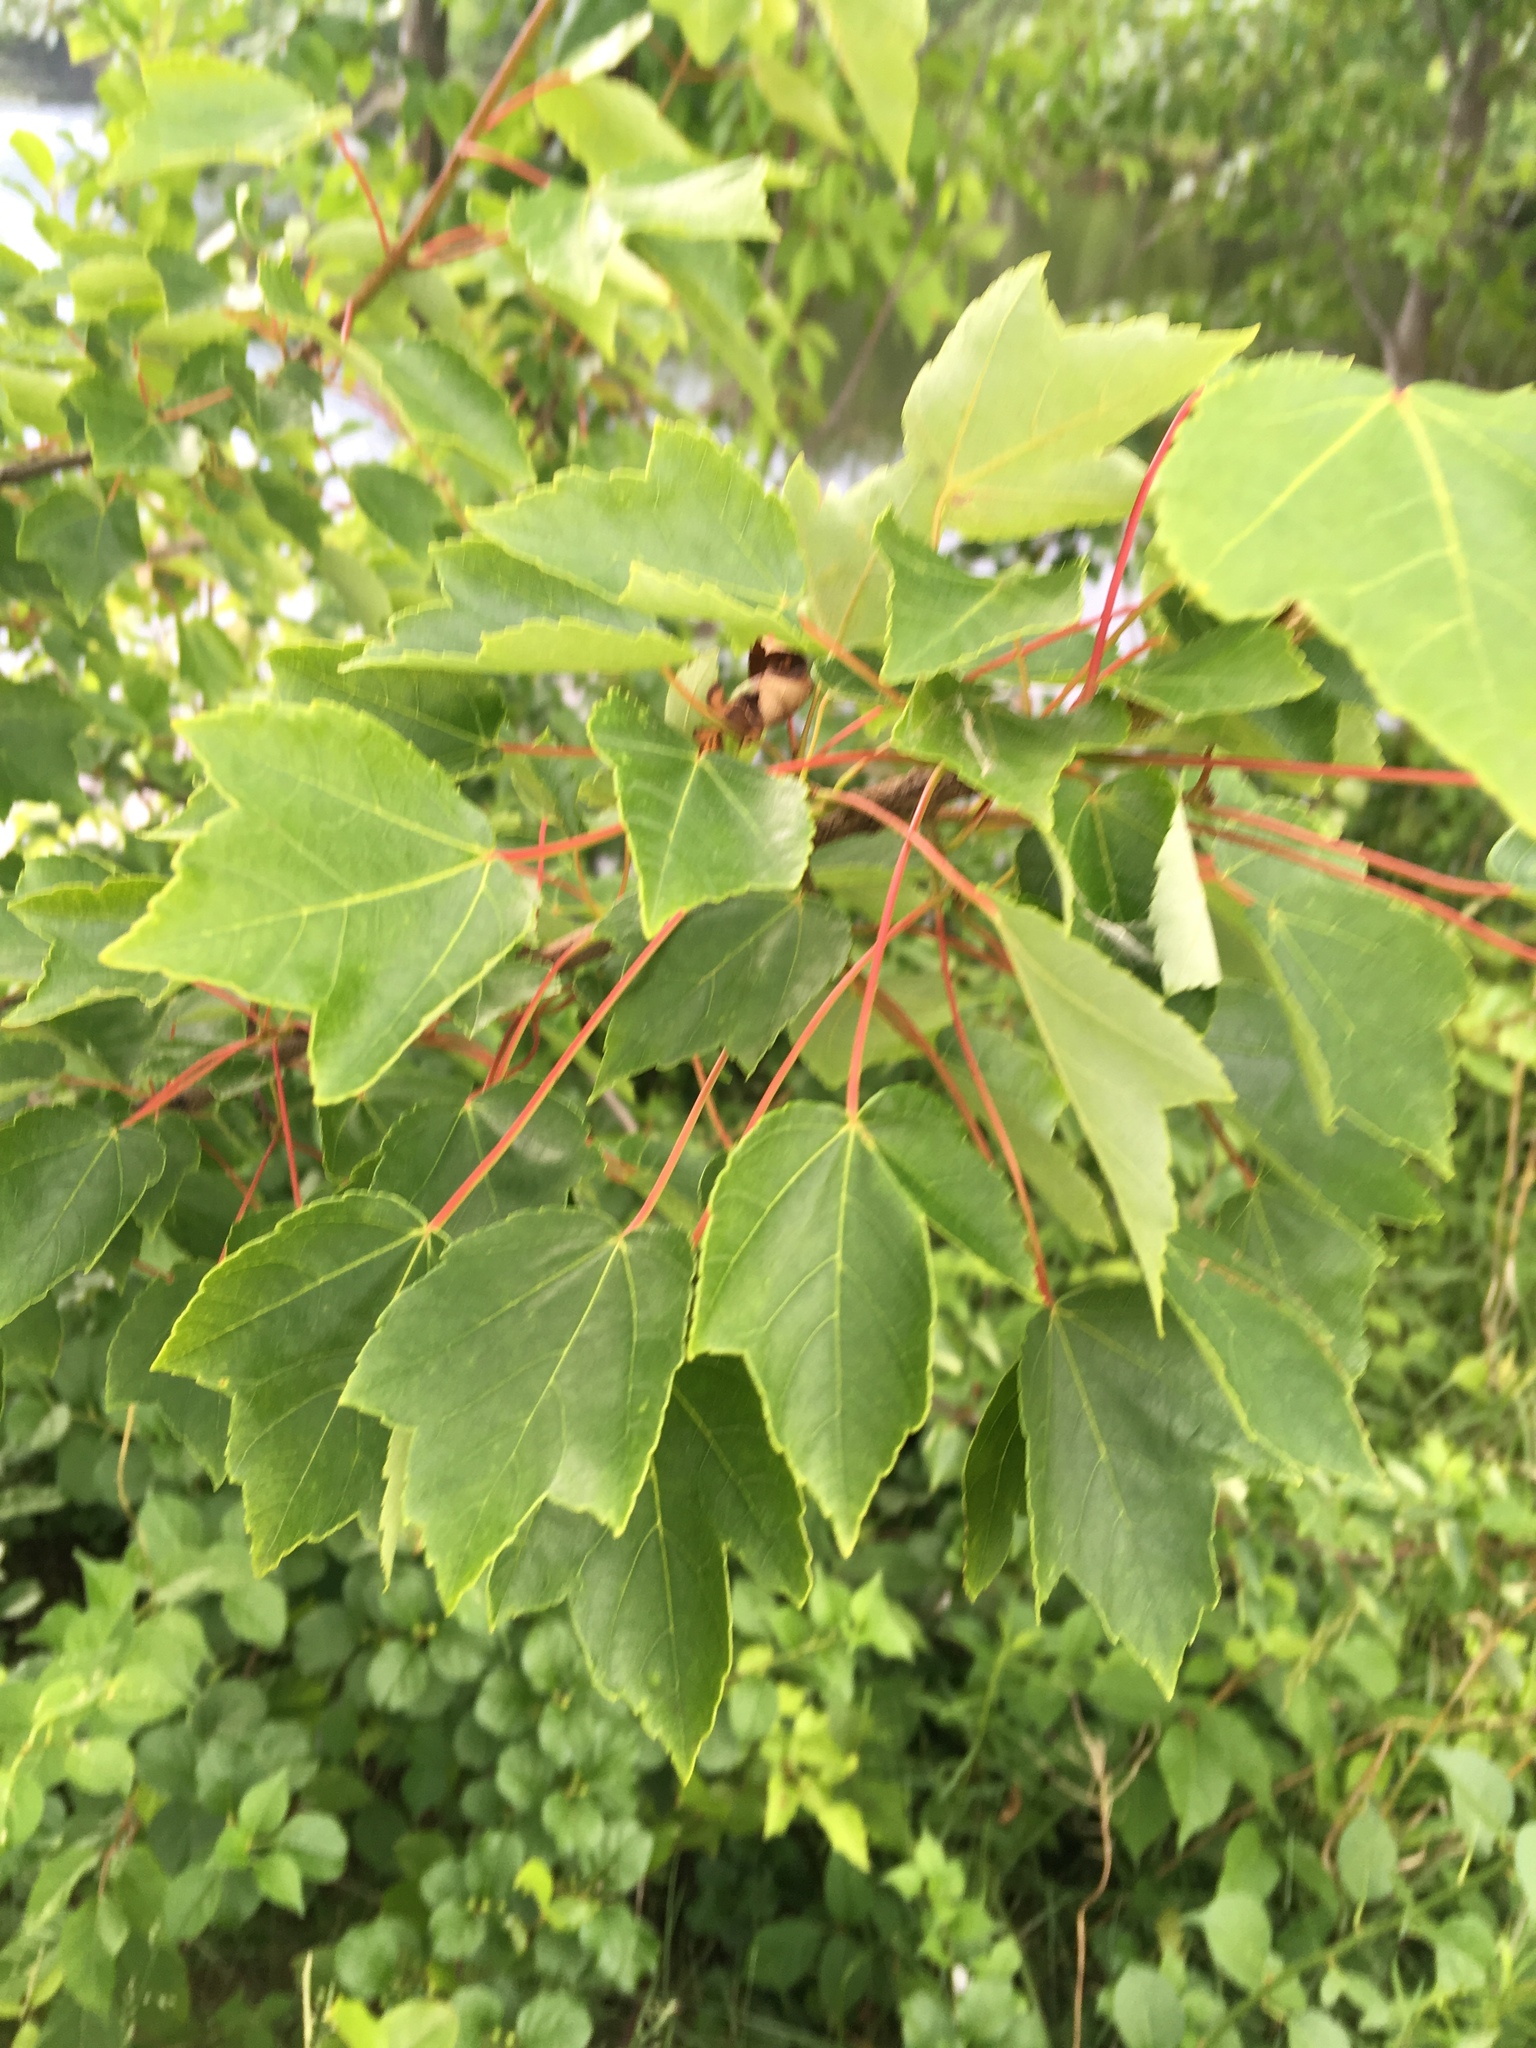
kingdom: Plantae
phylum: Tracheophyta
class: Magnoliopsida
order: Sapindales
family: Sapindaceae
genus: Acer
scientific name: Acer rubrum
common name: Red maple
